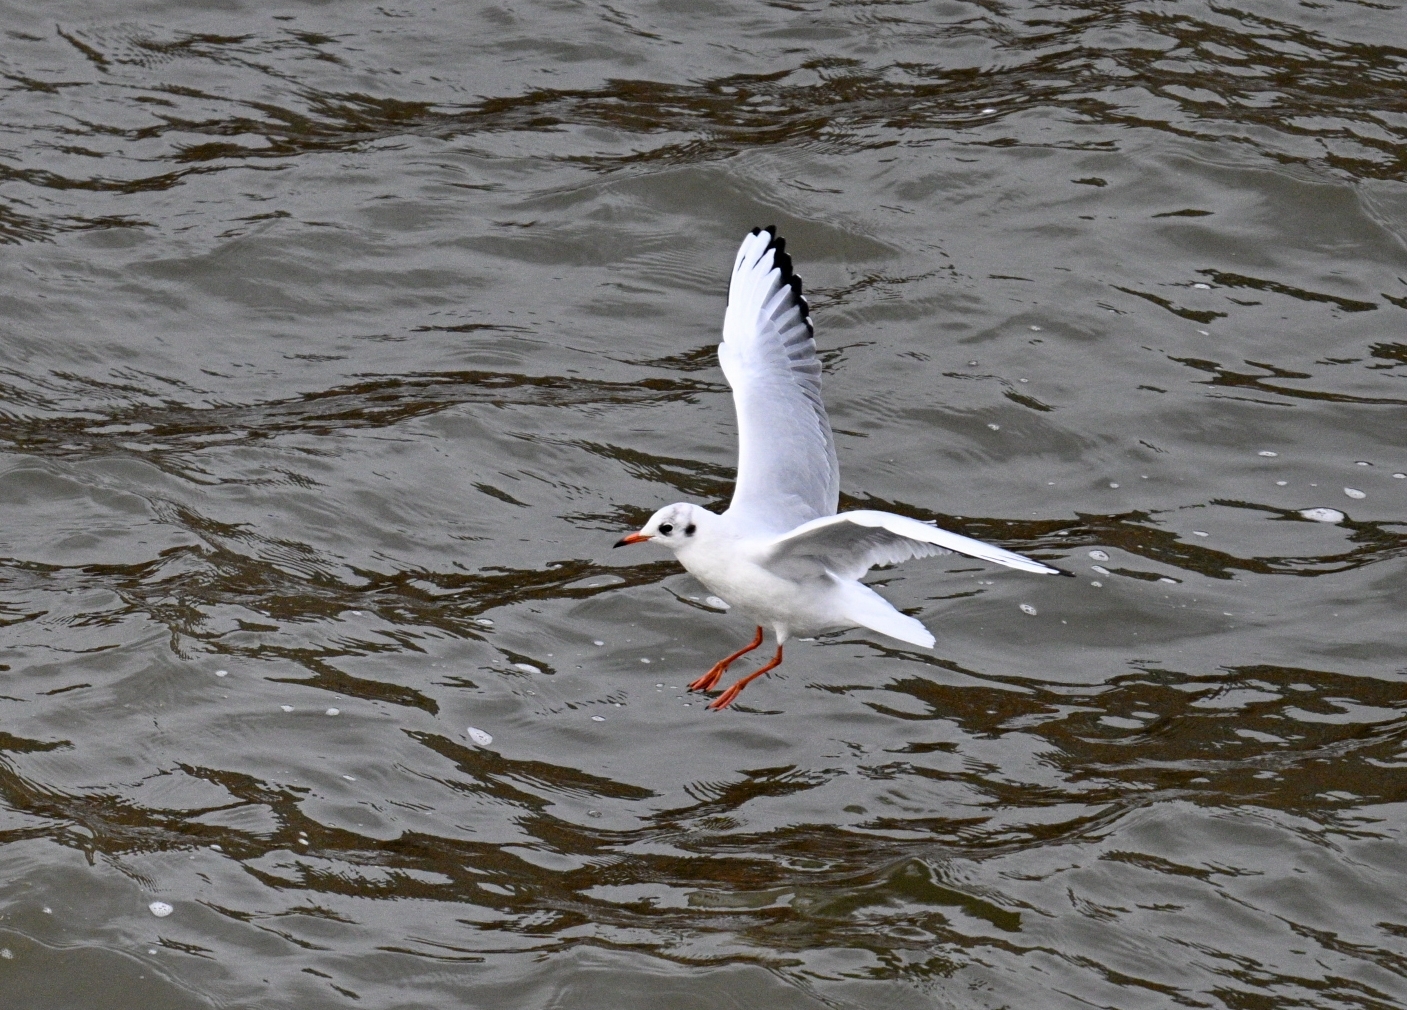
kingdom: Animalia
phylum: Chordata
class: Aves
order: Charadriiformes
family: Laridae
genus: Chroicocephalus
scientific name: Chroicocephalus ridibundus
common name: Black-headed gull
